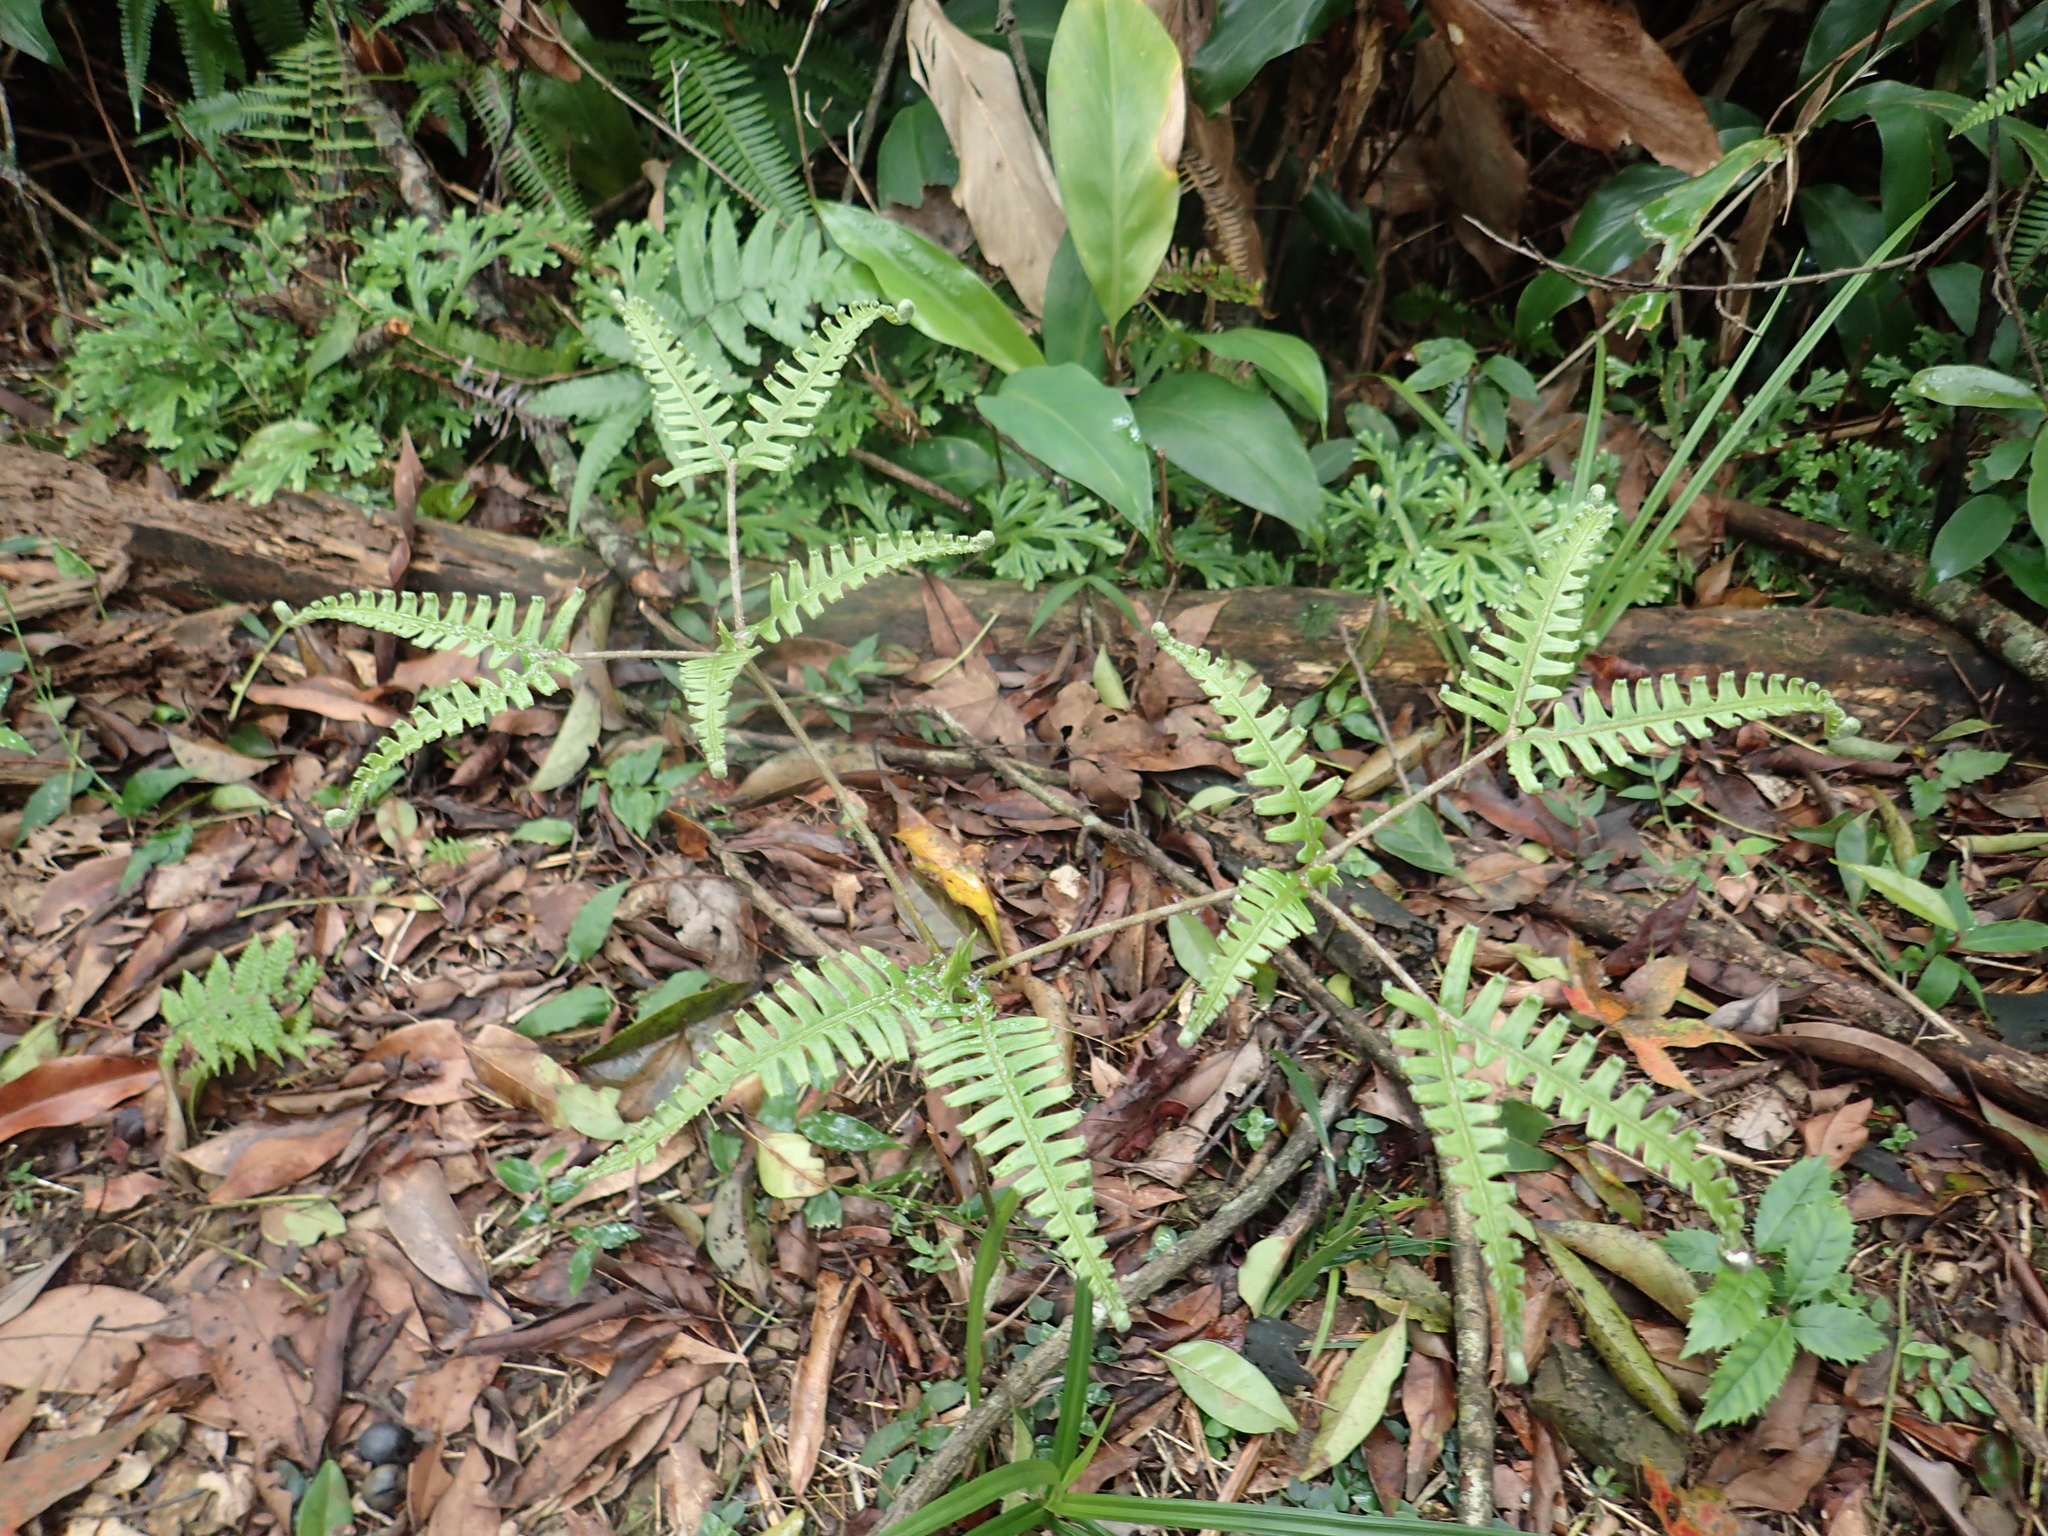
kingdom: Plantae
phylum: Tracheophyta
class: Polypodiopsida
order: Gleicheniales
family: Gleicheniaceae
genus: Dicranopteris
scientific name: Dicranopteris linearis
